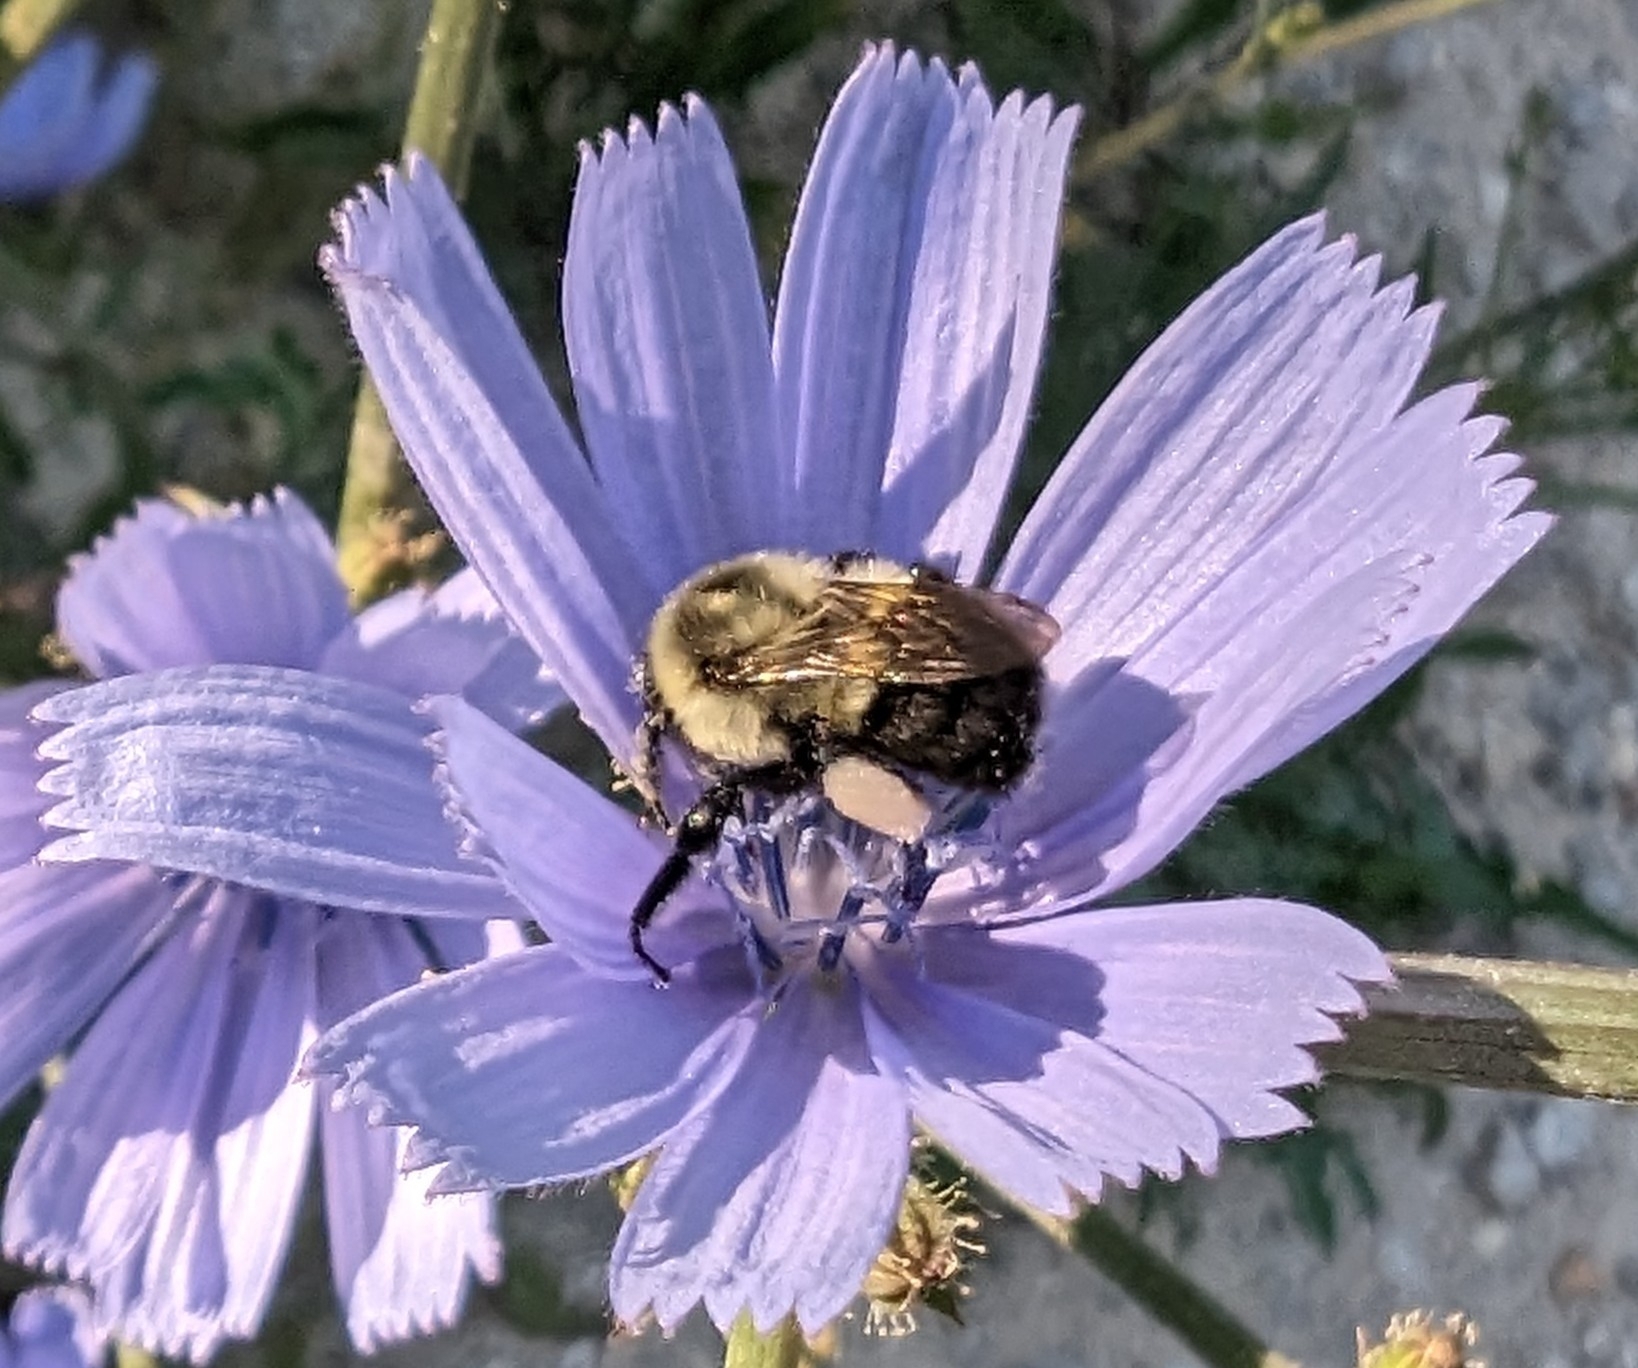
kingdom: Animalia
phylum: Arthropoda
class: Insecta
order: Hymenoptera
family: Apidae
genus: Bombus
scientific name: Bombus impatiens
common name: Common eastern bumble bee
